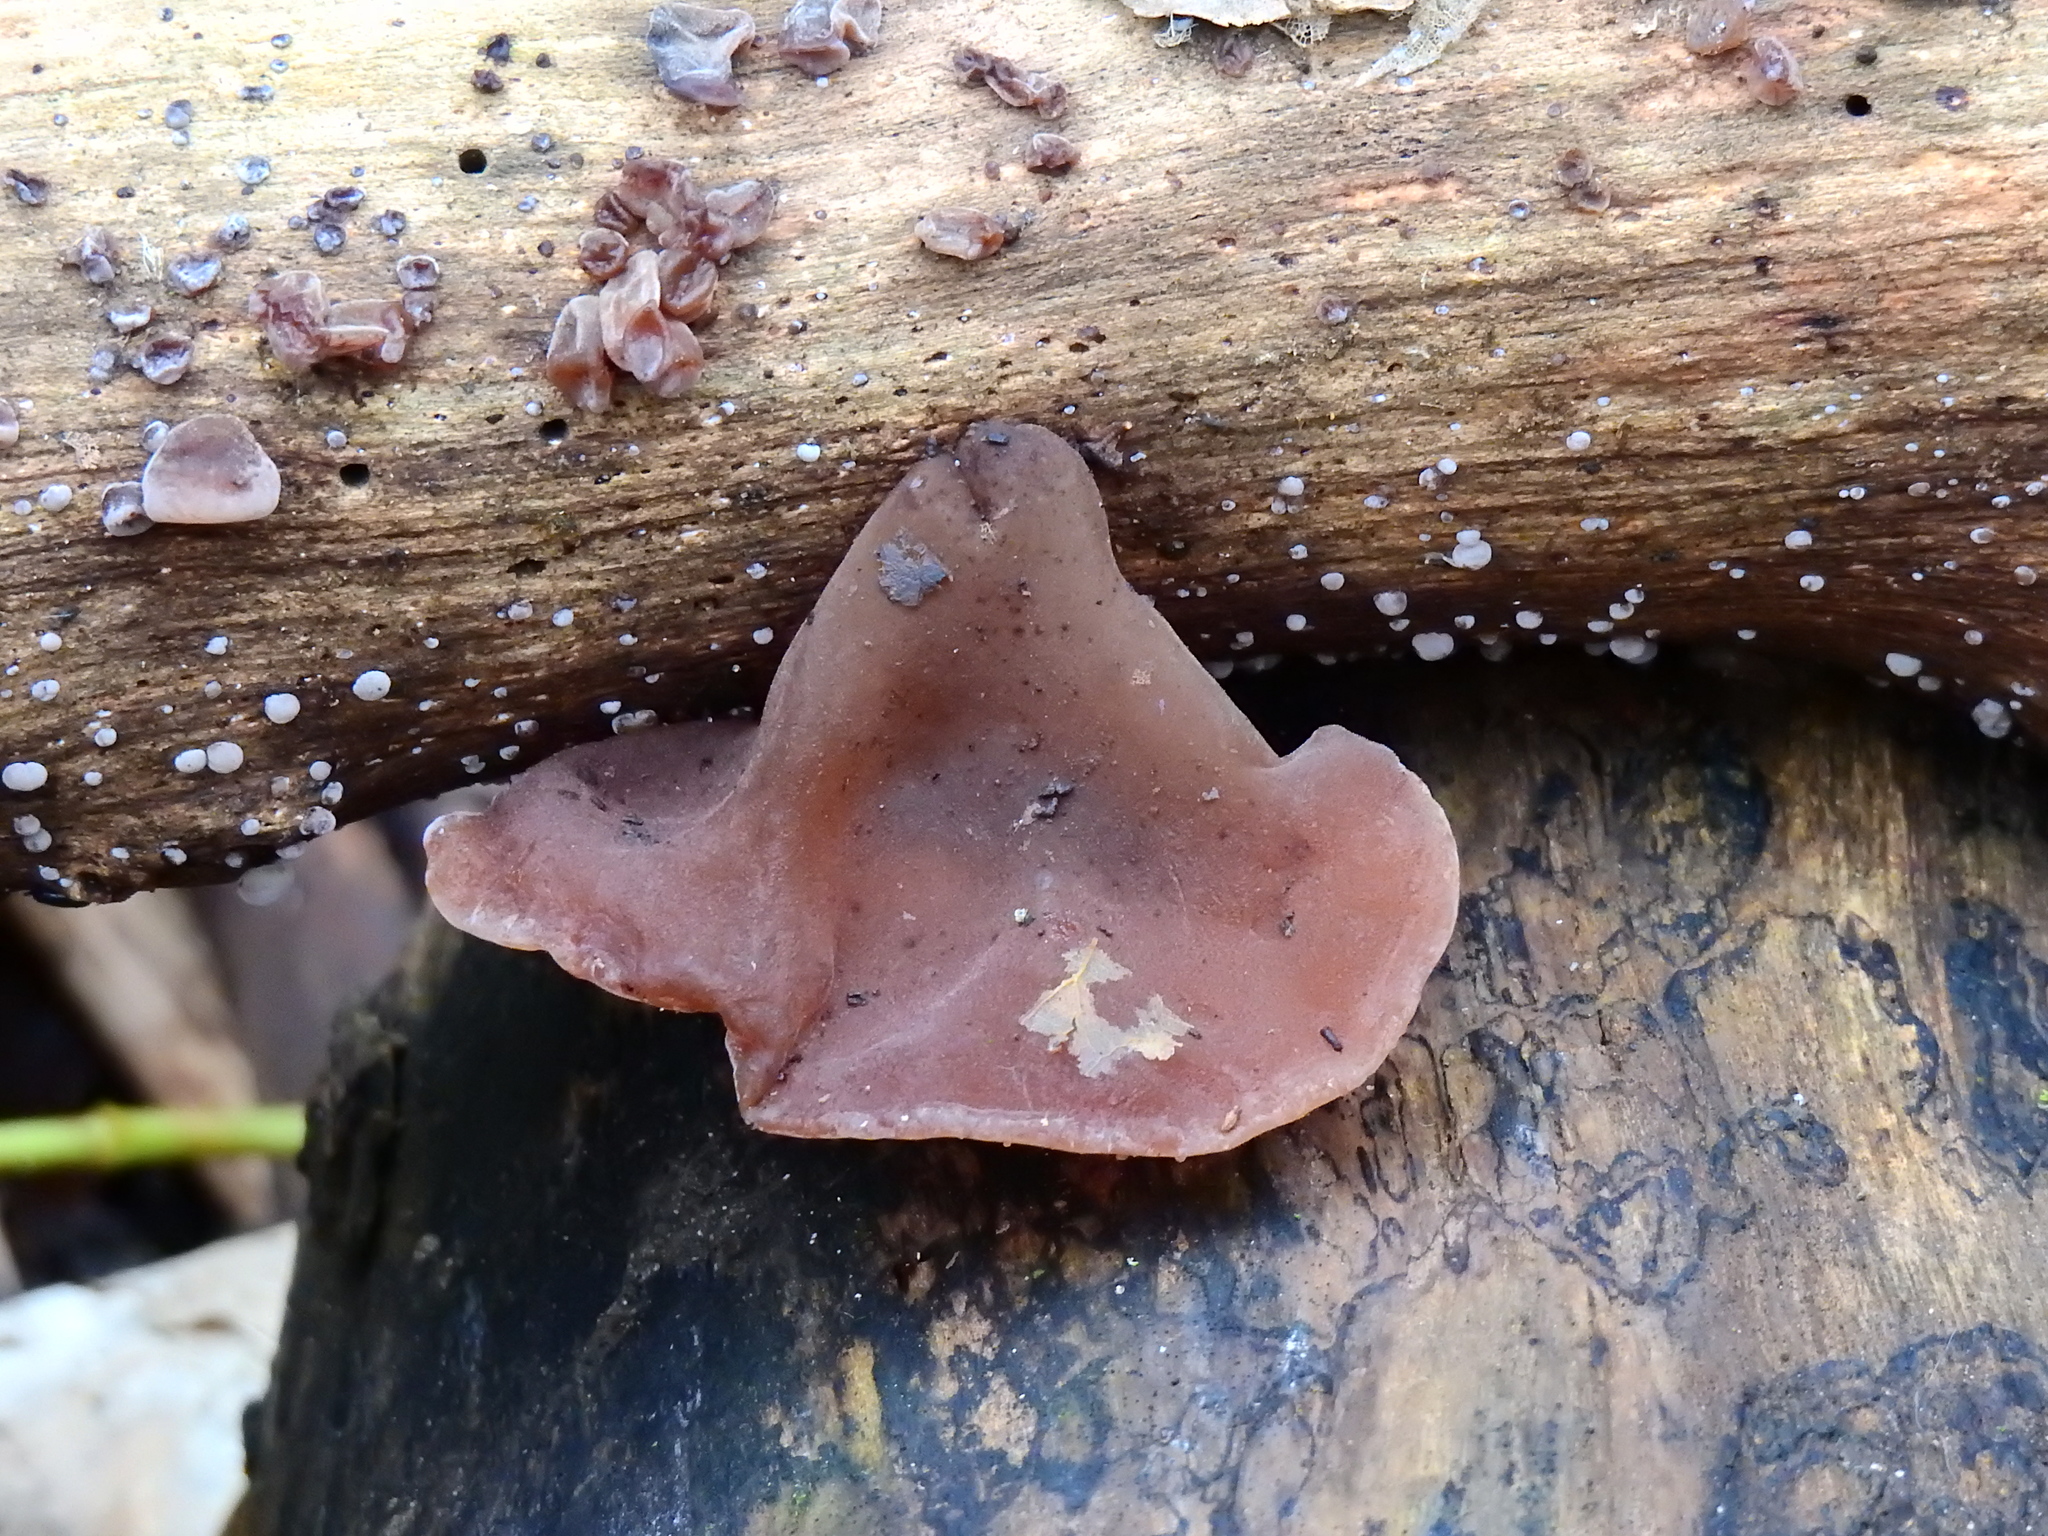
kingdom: Fungi
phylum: Basidiomycota
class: Agaricomycetes
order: Auriculariales
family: Auriculariaceae
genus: Auricularia
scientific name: Auricularia auricula-judae
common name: Jelly ear
